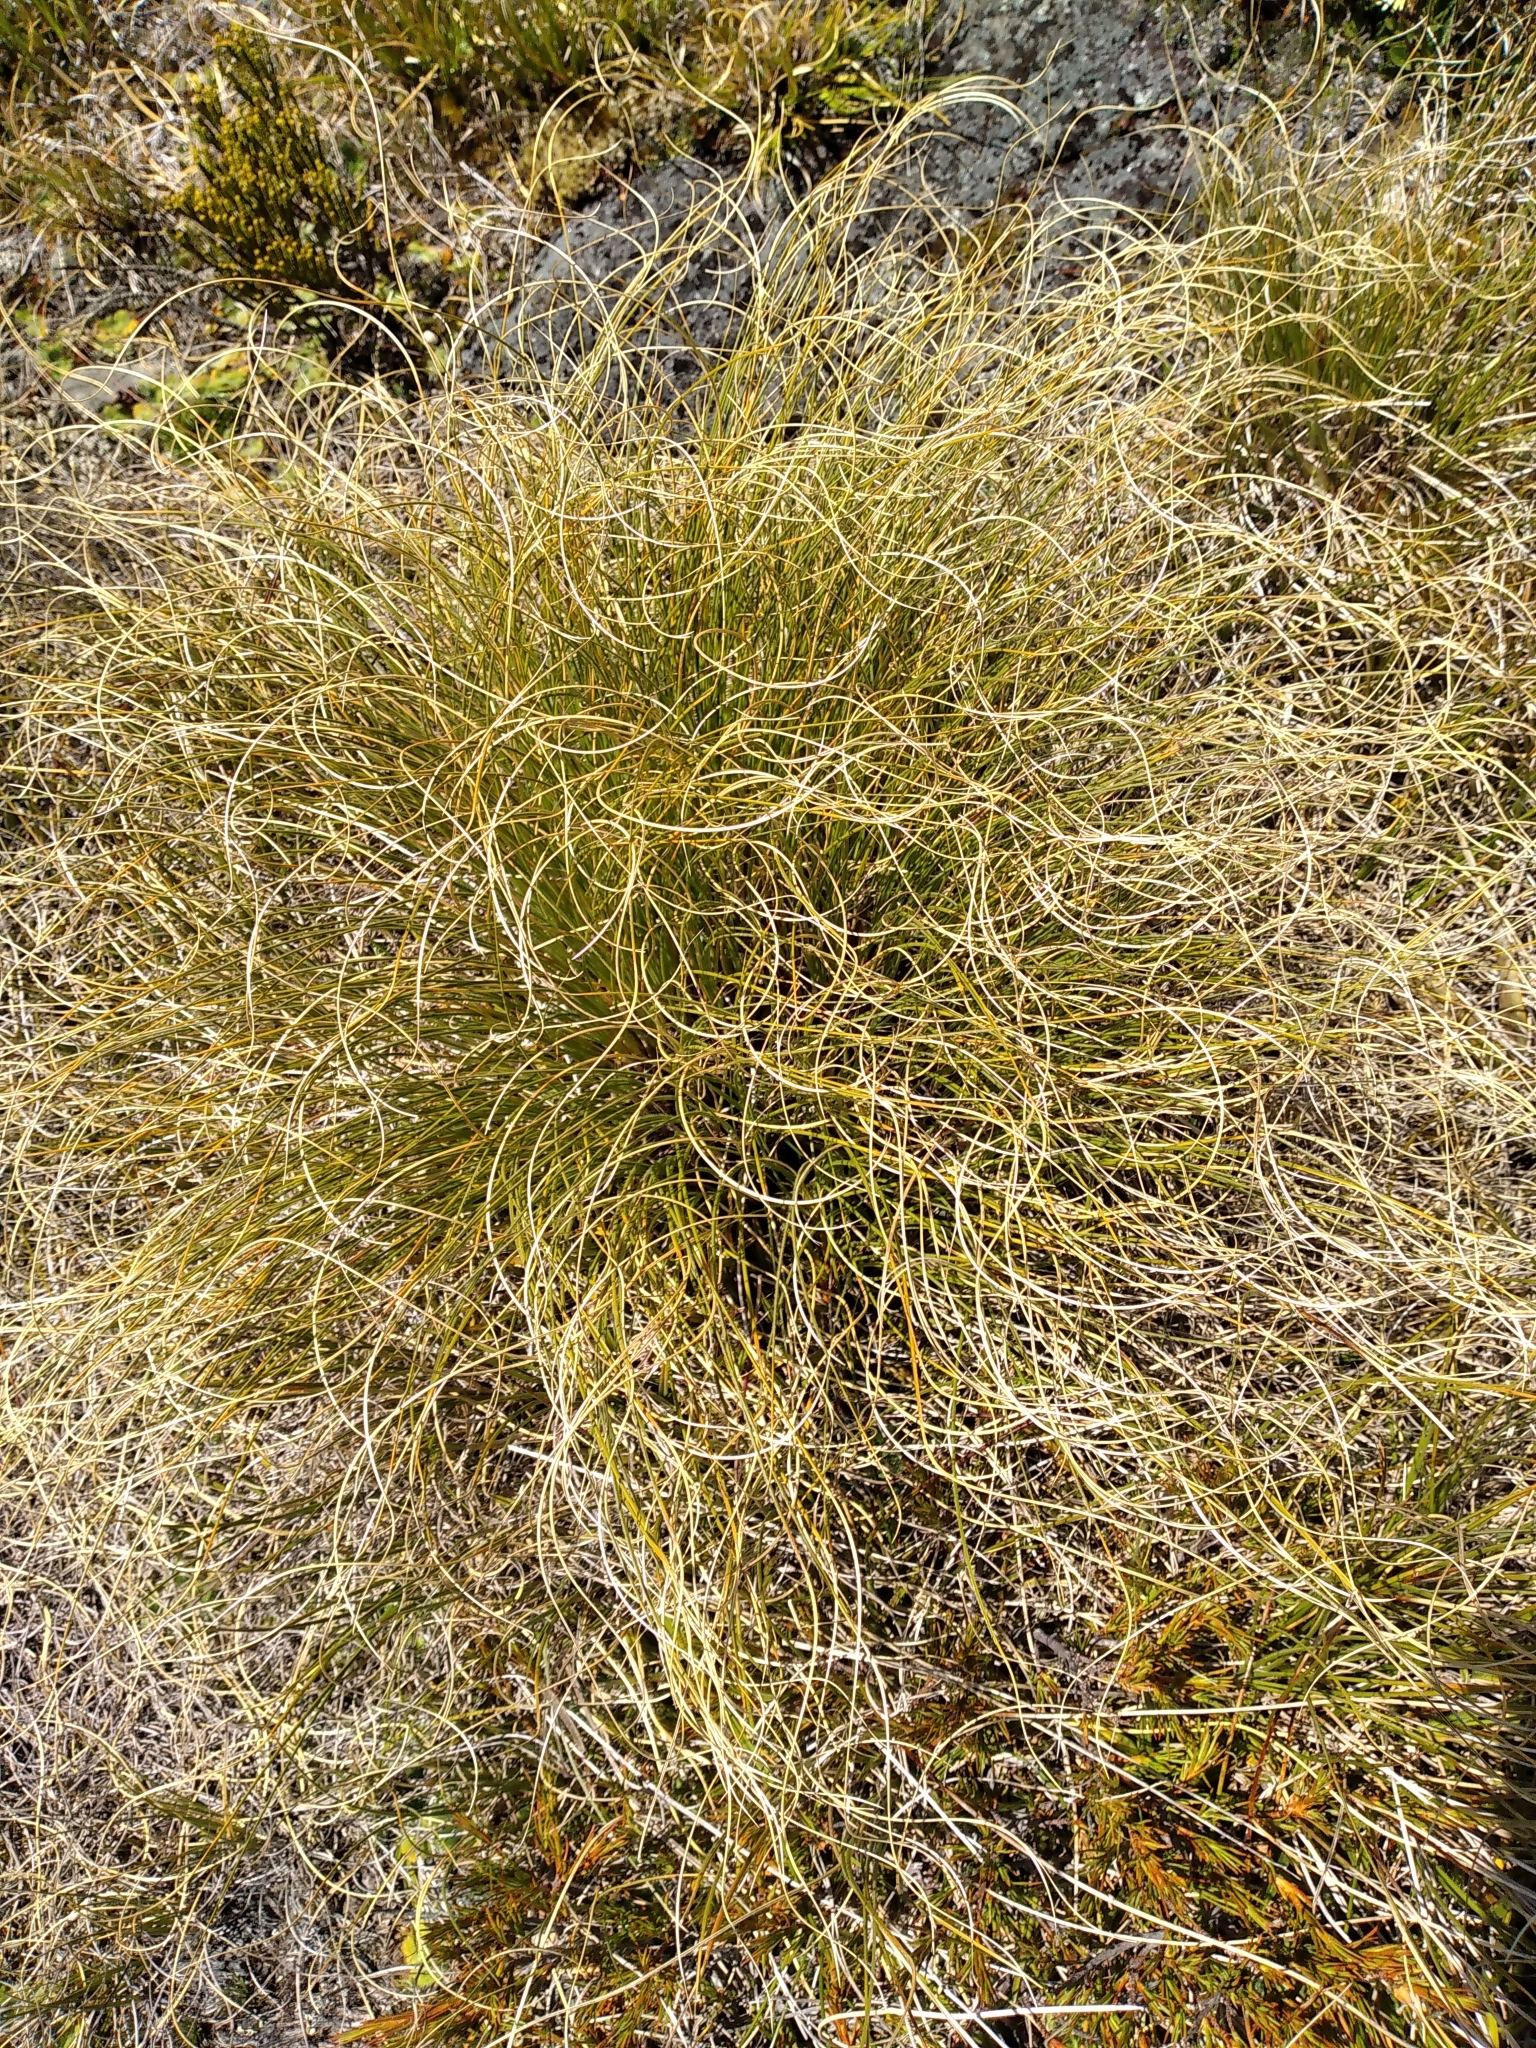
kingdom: Plantae
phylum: Tracheophyta
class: Liliopsida
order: Poales
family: Poaceae
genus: Chionochloa
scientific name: Chionochloa teretifolia
